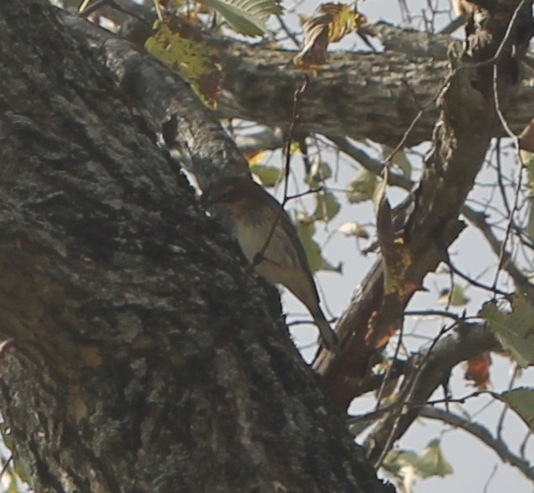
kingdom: Animalia
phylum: Chordata
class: Aves
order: Passeriformes
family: Parulidae
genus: Setophaga
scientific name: Setophaga coronata
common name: Myrtle warbler
